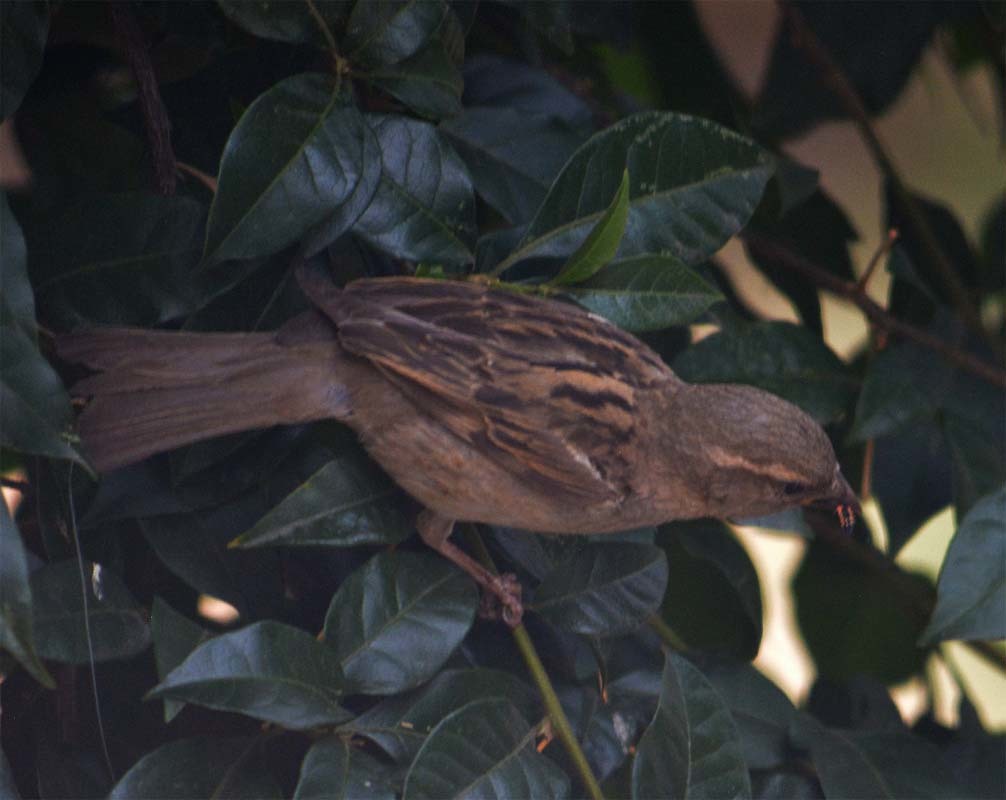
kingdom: Animalia
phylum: Chordata
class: Aves
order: Passeriformes
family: Passeridae
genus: Passer
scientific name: Passer domesticus
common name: House sparrow
